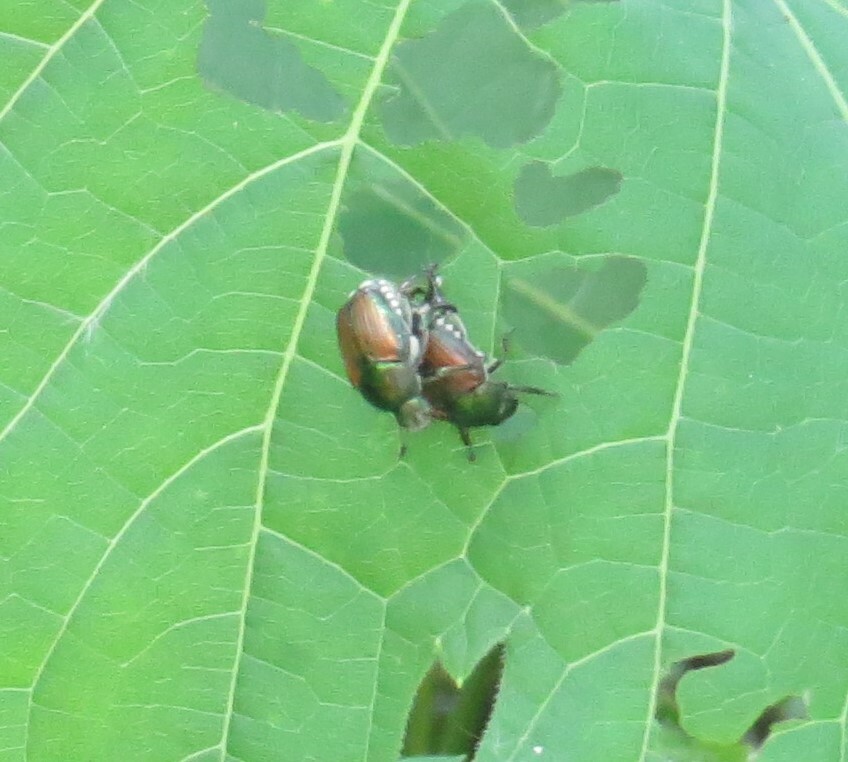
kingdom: Animalia
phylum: Arthropoda
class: Insecta
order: Coleoptera
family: Scarabaeidae
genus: Popillia
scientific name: Popillia japonica
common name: Japanese beetle
